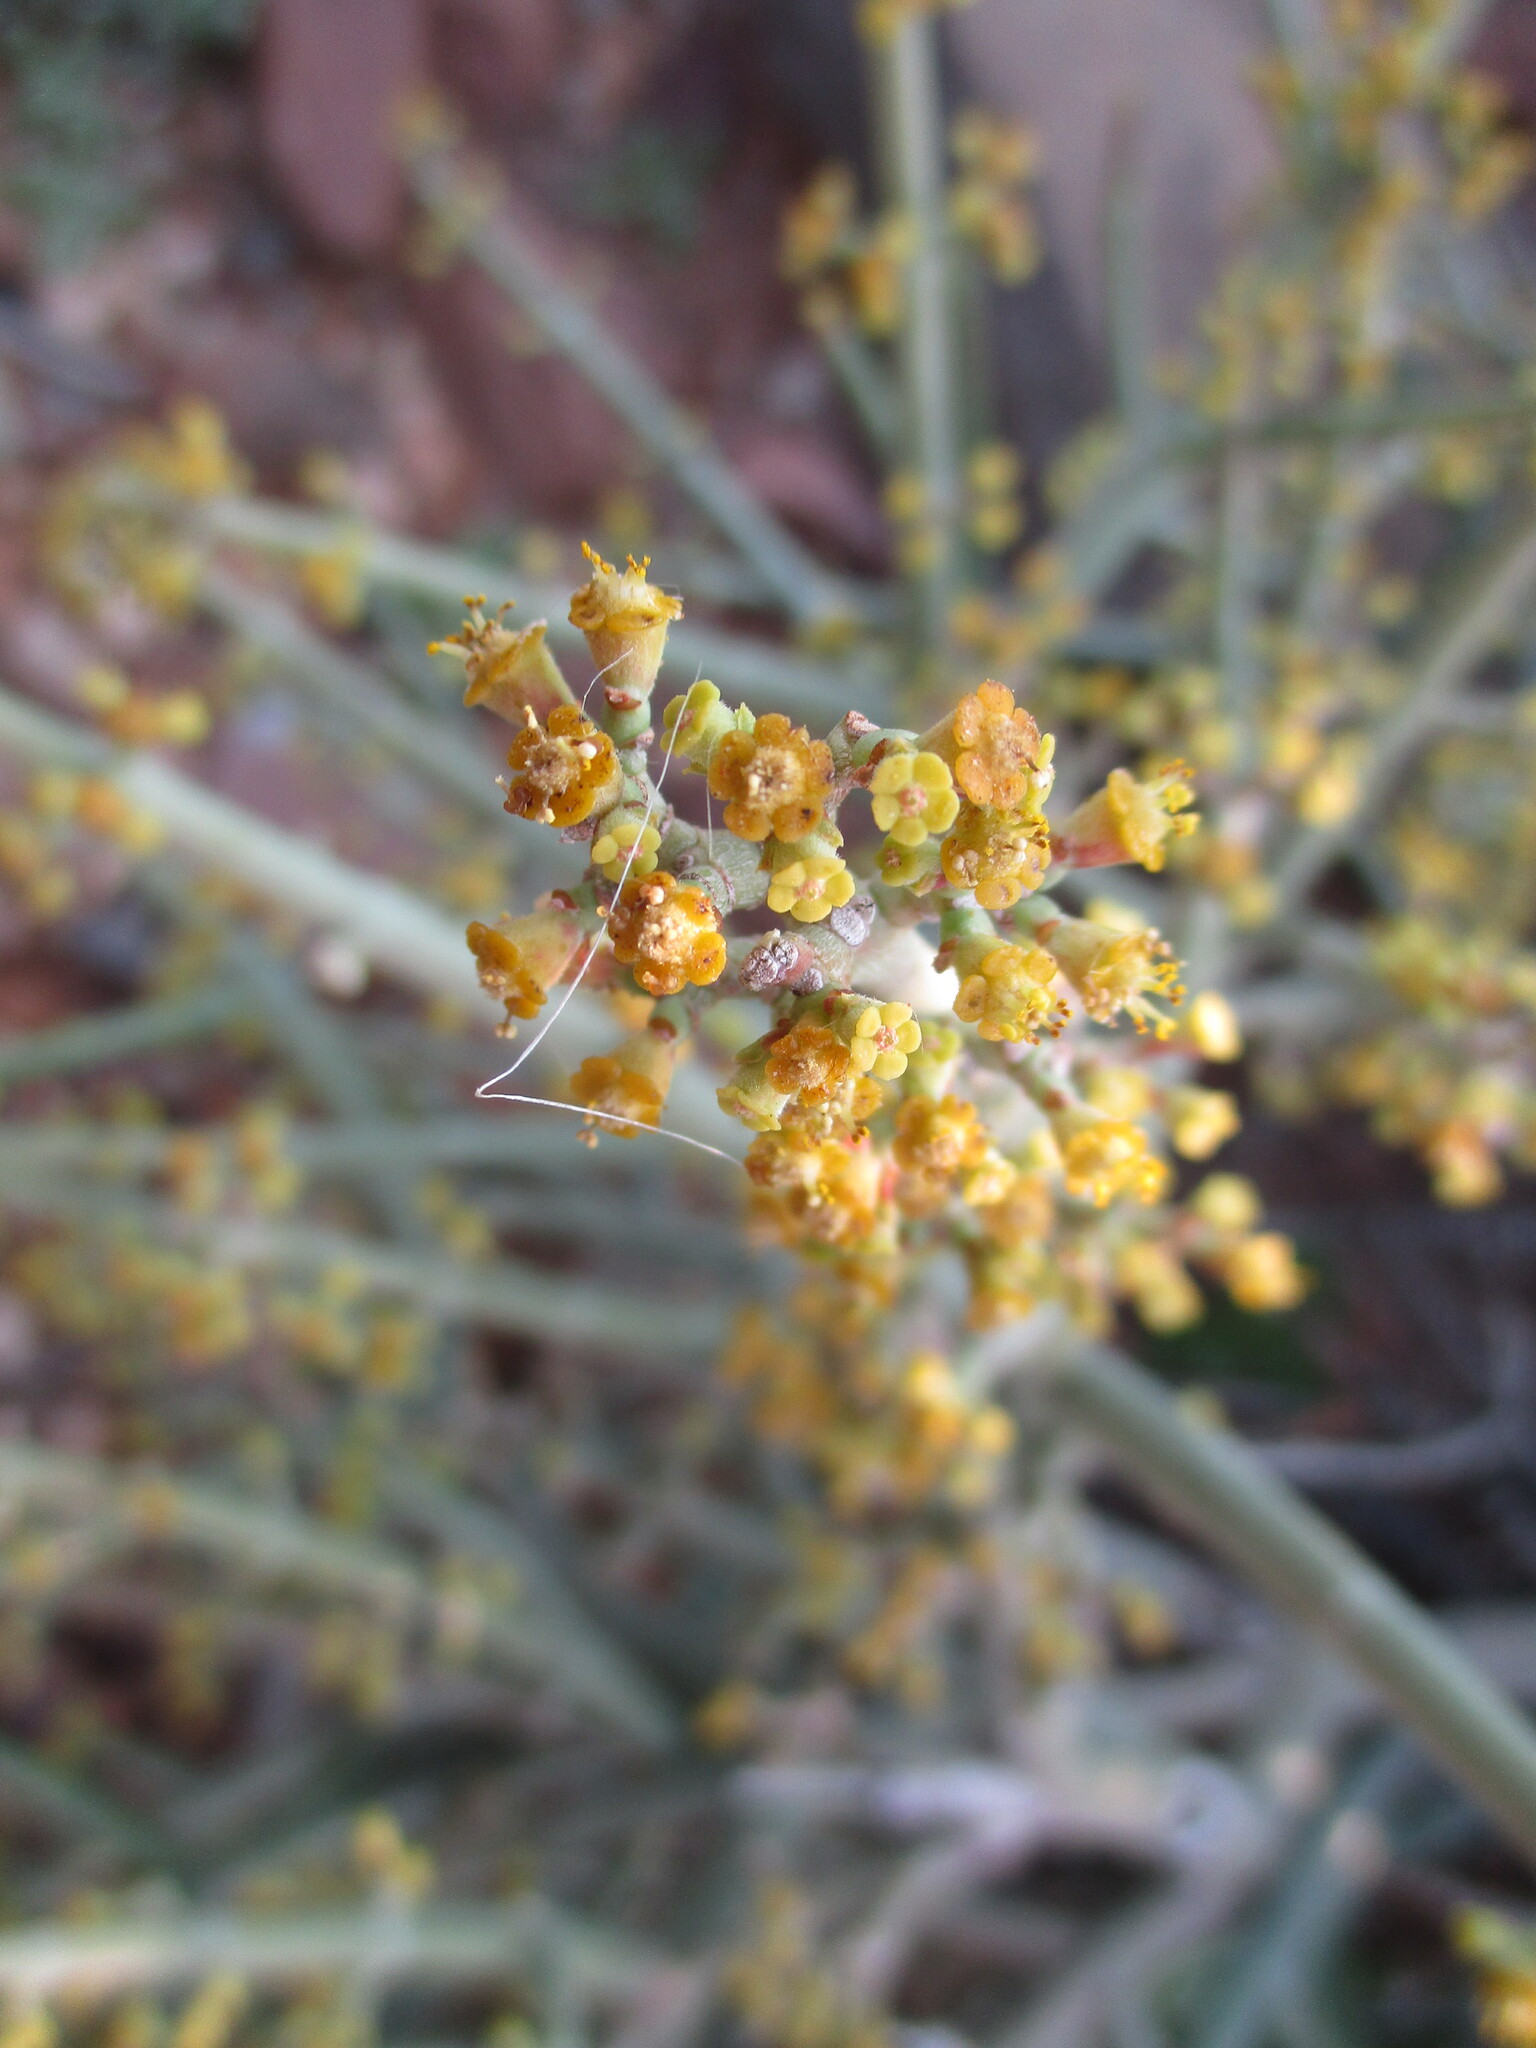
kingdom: Plantae
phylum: Tracheophyta
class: Magnoliopsida
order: Malpighiales
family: Euphorbiaceae
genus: Euphorbia
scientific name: Euphorbia spartaria
